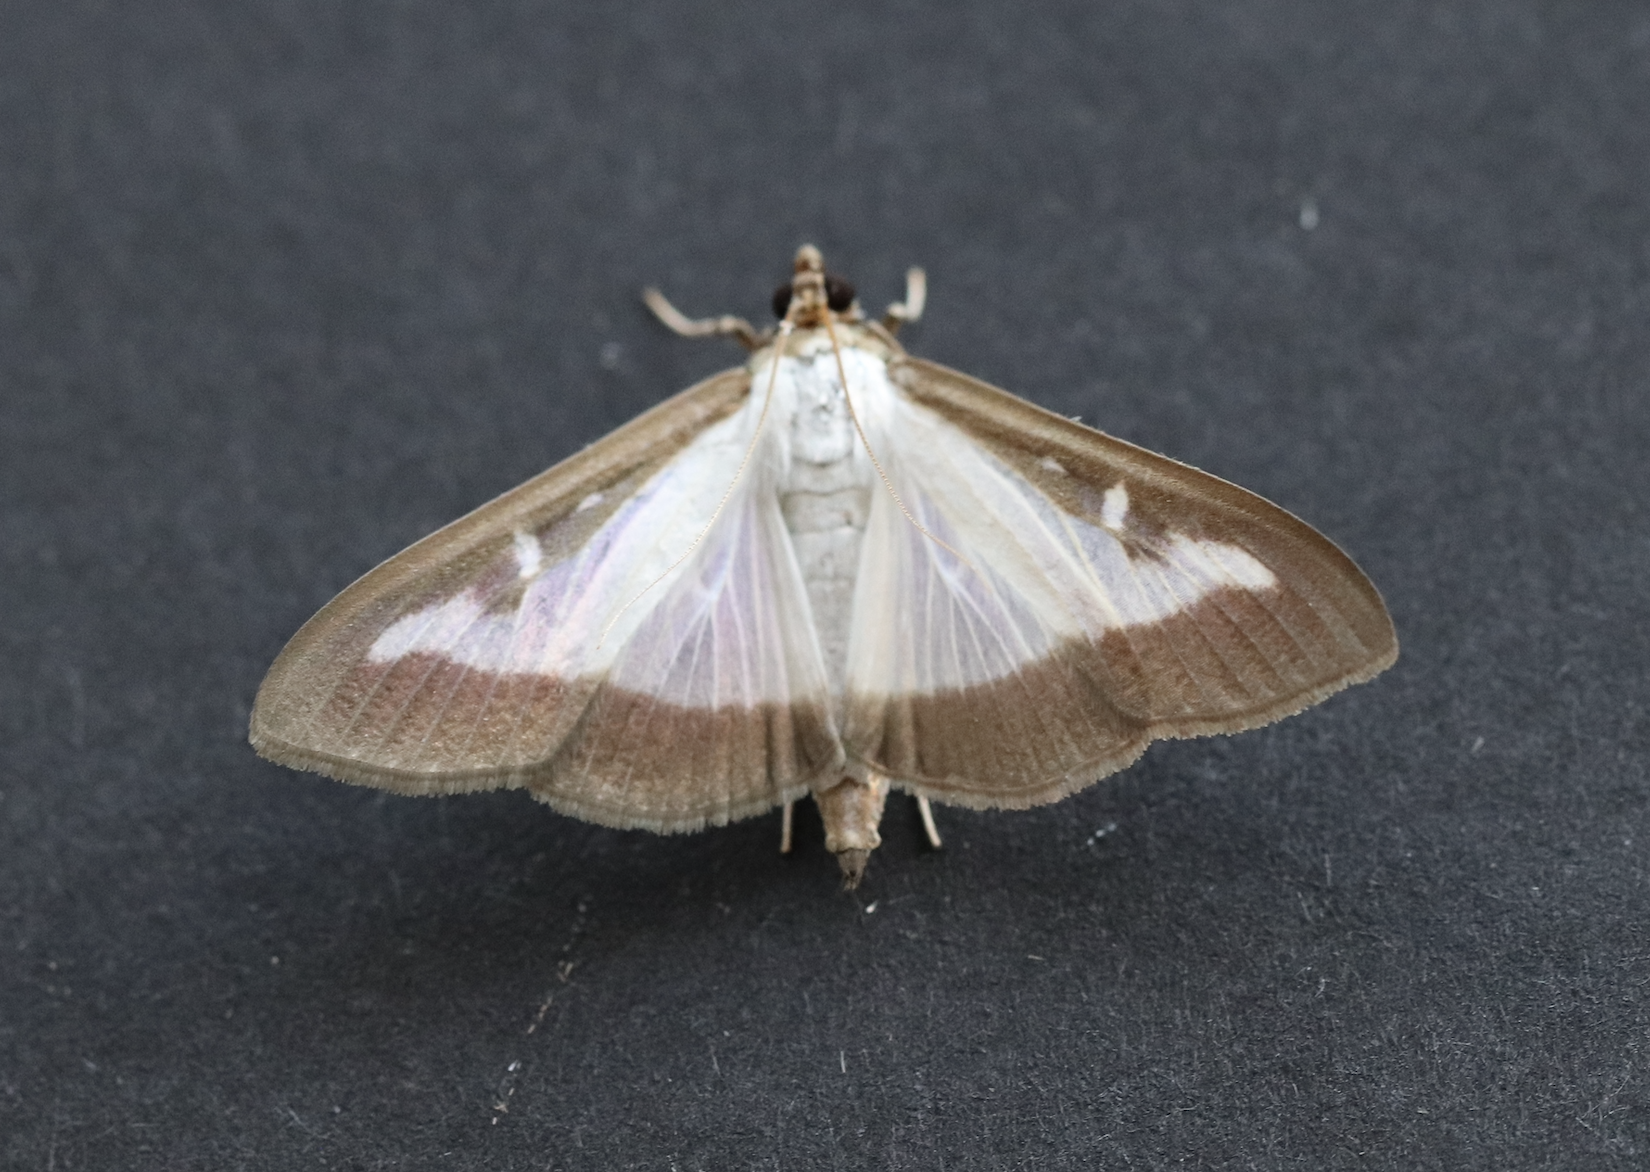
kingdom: Animalia
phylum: Arthropoda
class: Insecta
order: Lepidoptera
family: Crambidae
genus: Cydalima
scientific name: Cydalima perspectalis
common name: Box tree moth
